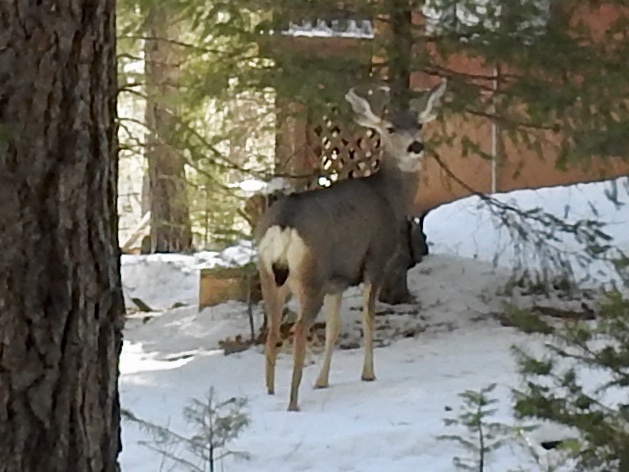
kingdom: Animalia
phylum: Chordata
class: Mammalia
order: Artiodactyla
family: Cervidae
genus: Odocoileus
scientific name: Odocoileus hemionus
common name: Mule deer
